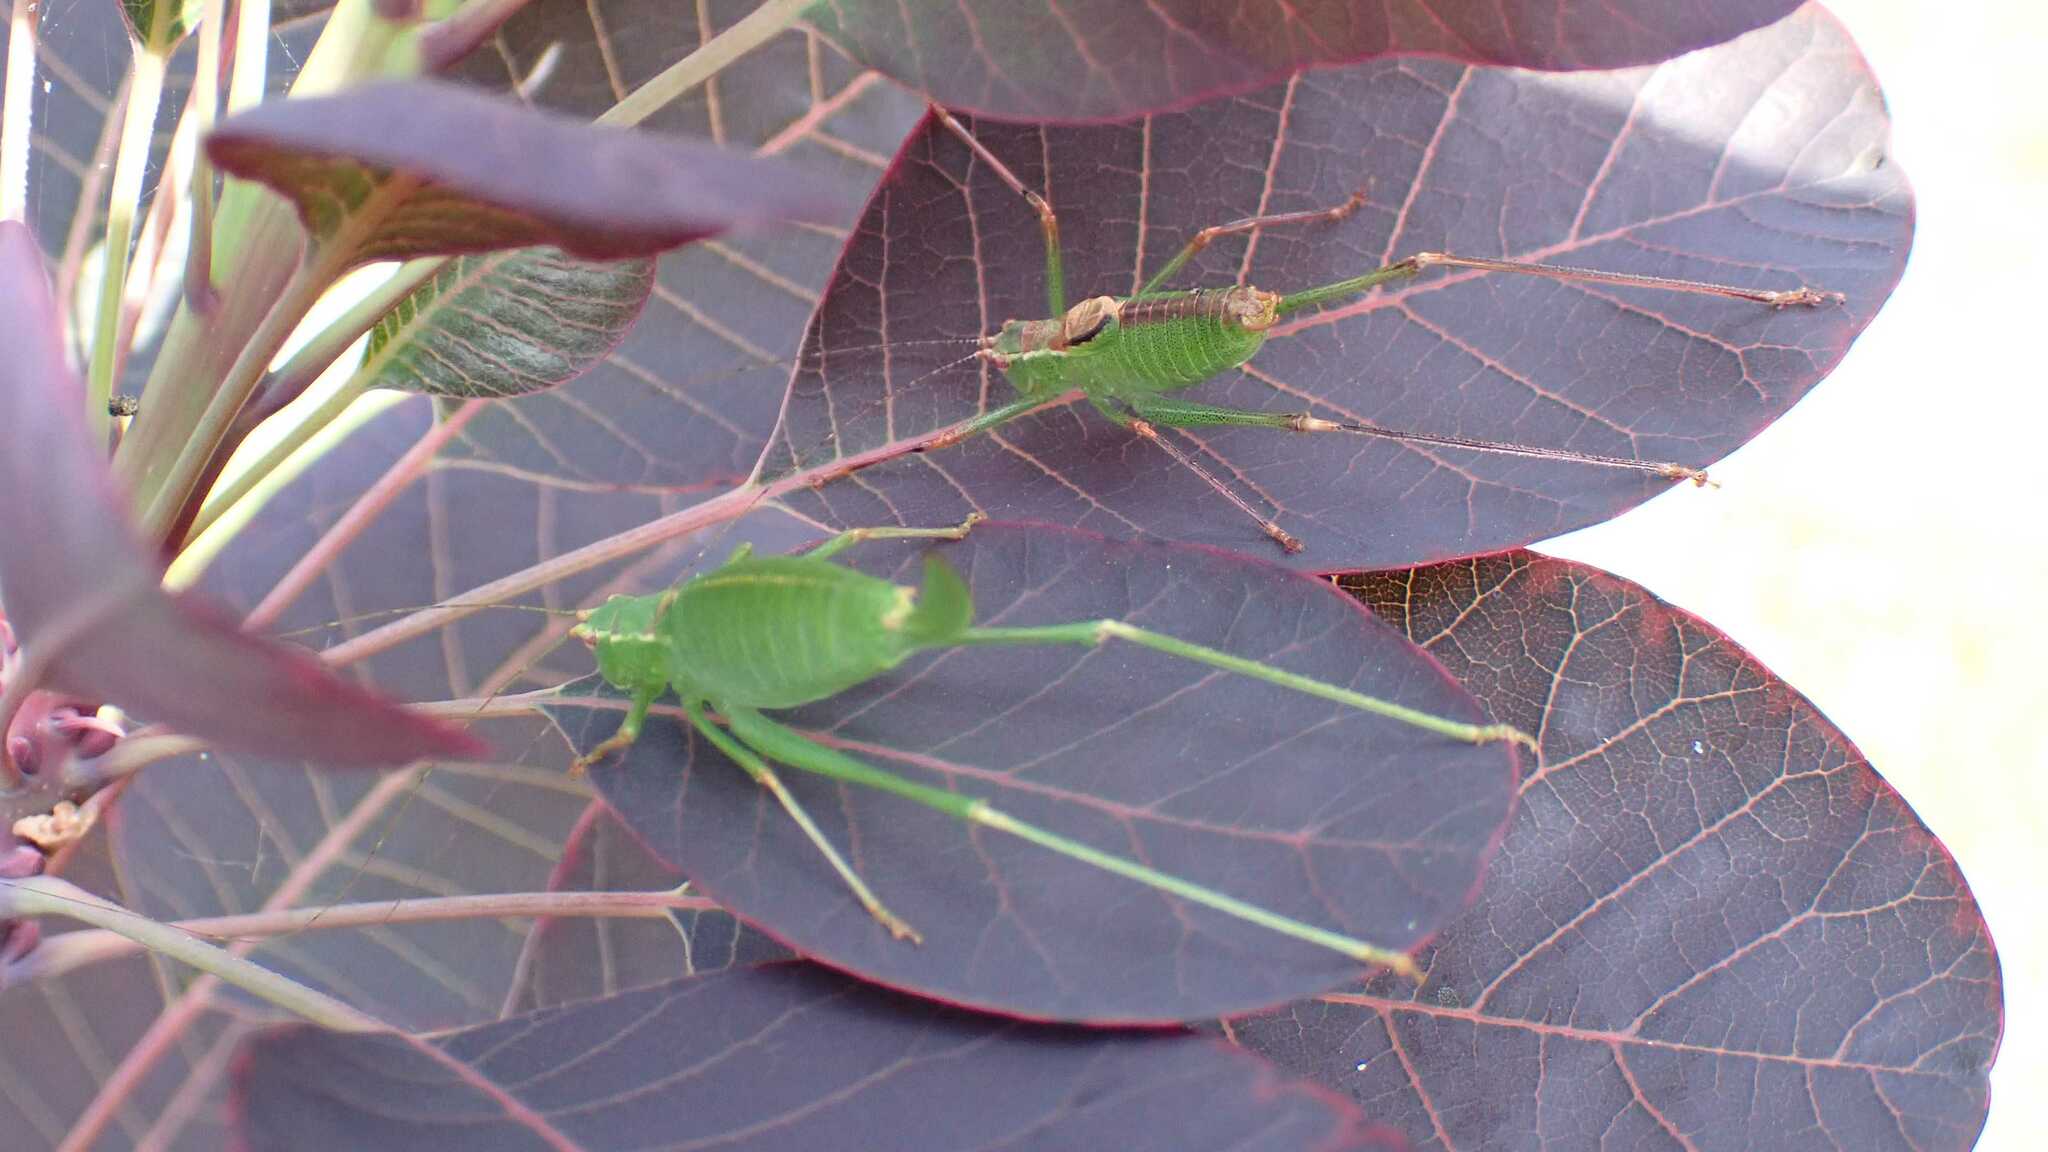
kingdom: Animalia
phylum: Arthropoda
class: Insecta
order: Orthoptera
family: Tettigoniidae
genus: Leptophyes
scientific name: Leptophyes punctatissima
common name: Speckled bush-cricket
